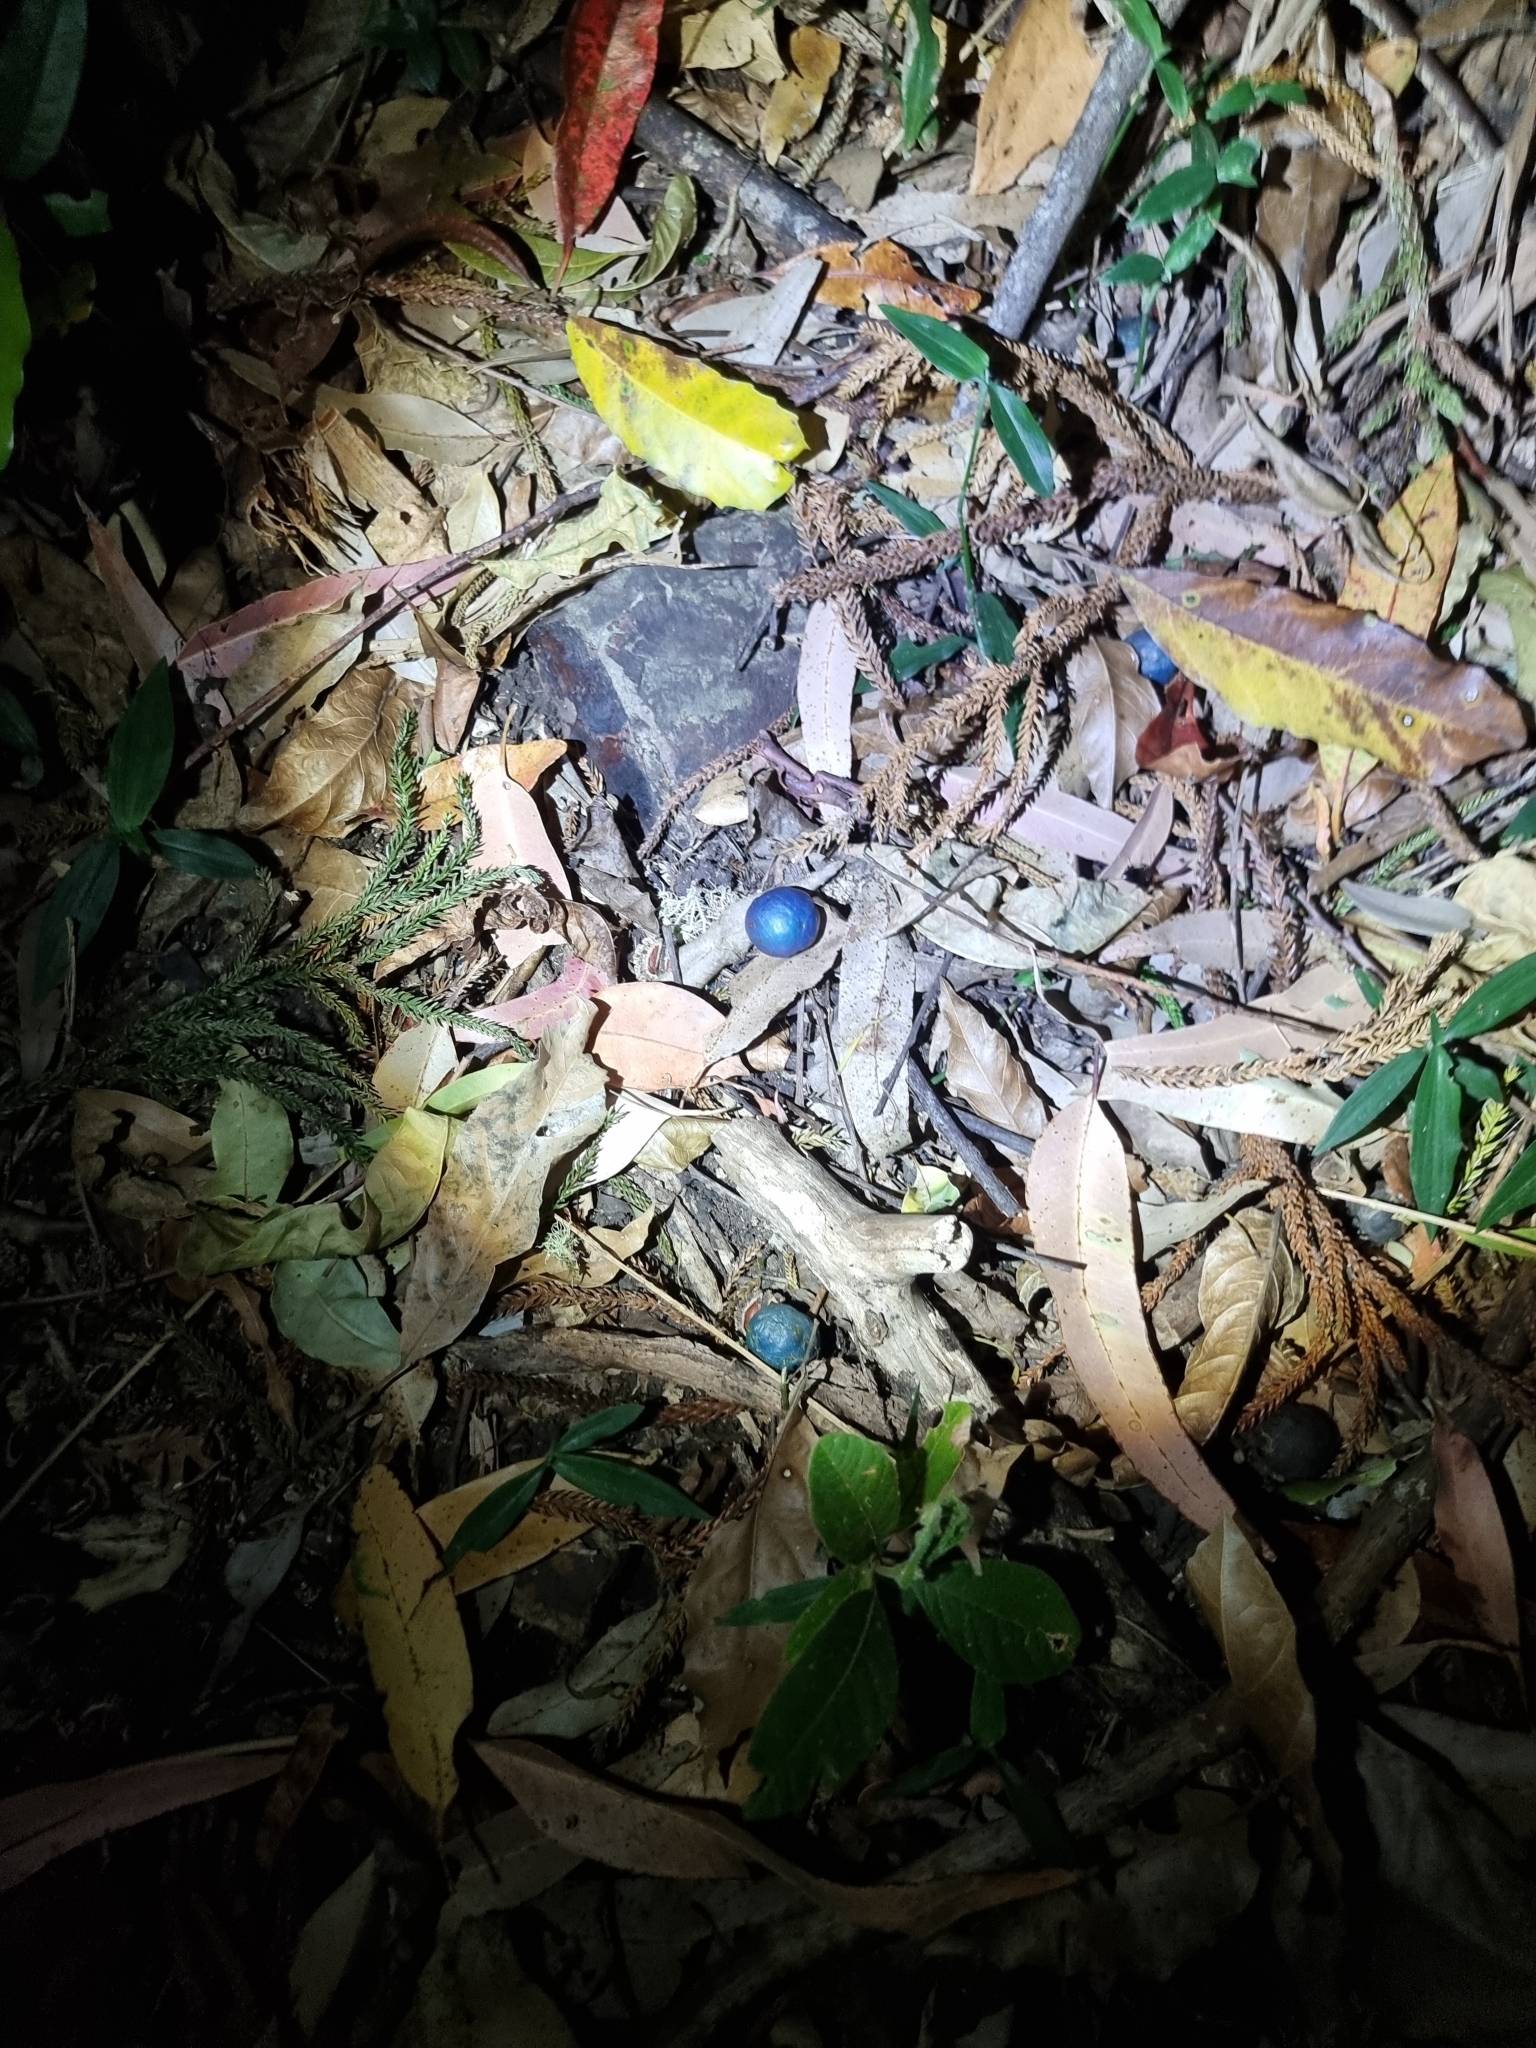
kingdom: Plantae
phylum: Tracheophyta
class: Magnoliopsida
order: Oxalidales
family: Elaeocarpaceae
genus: Elaeocarpus
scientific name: Elaeocarpus angustifolius
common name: Blue marble tree
